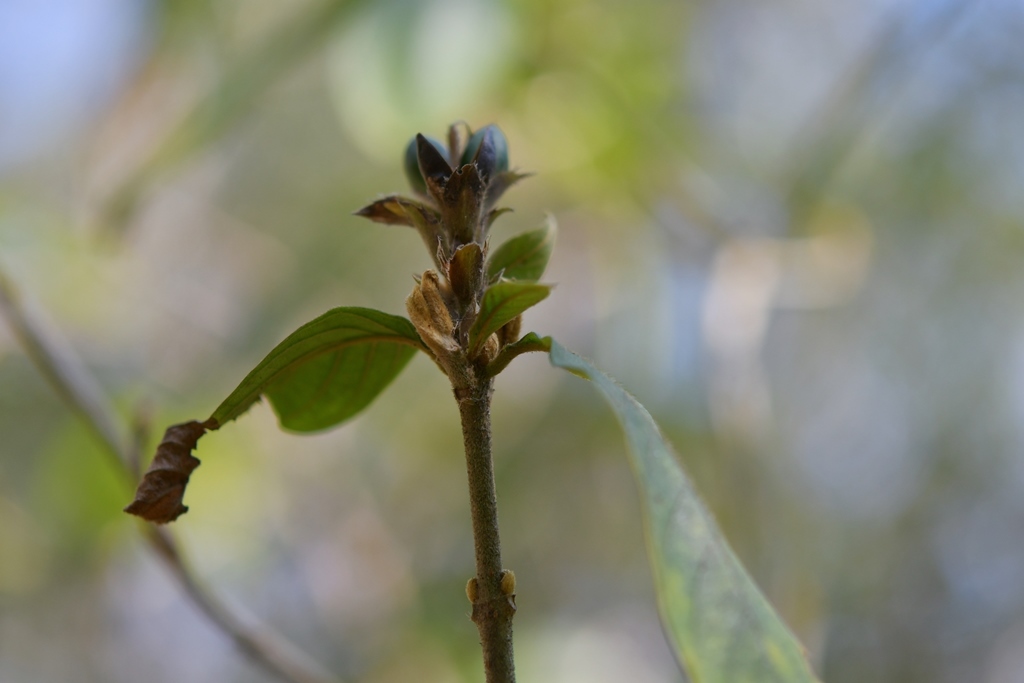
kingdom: Plantae
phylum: Tracheophyta
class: Magnoliopsida
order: Lamiales
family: Acanthaceae
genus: Aphelandra
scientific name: Aphelandra scabra
